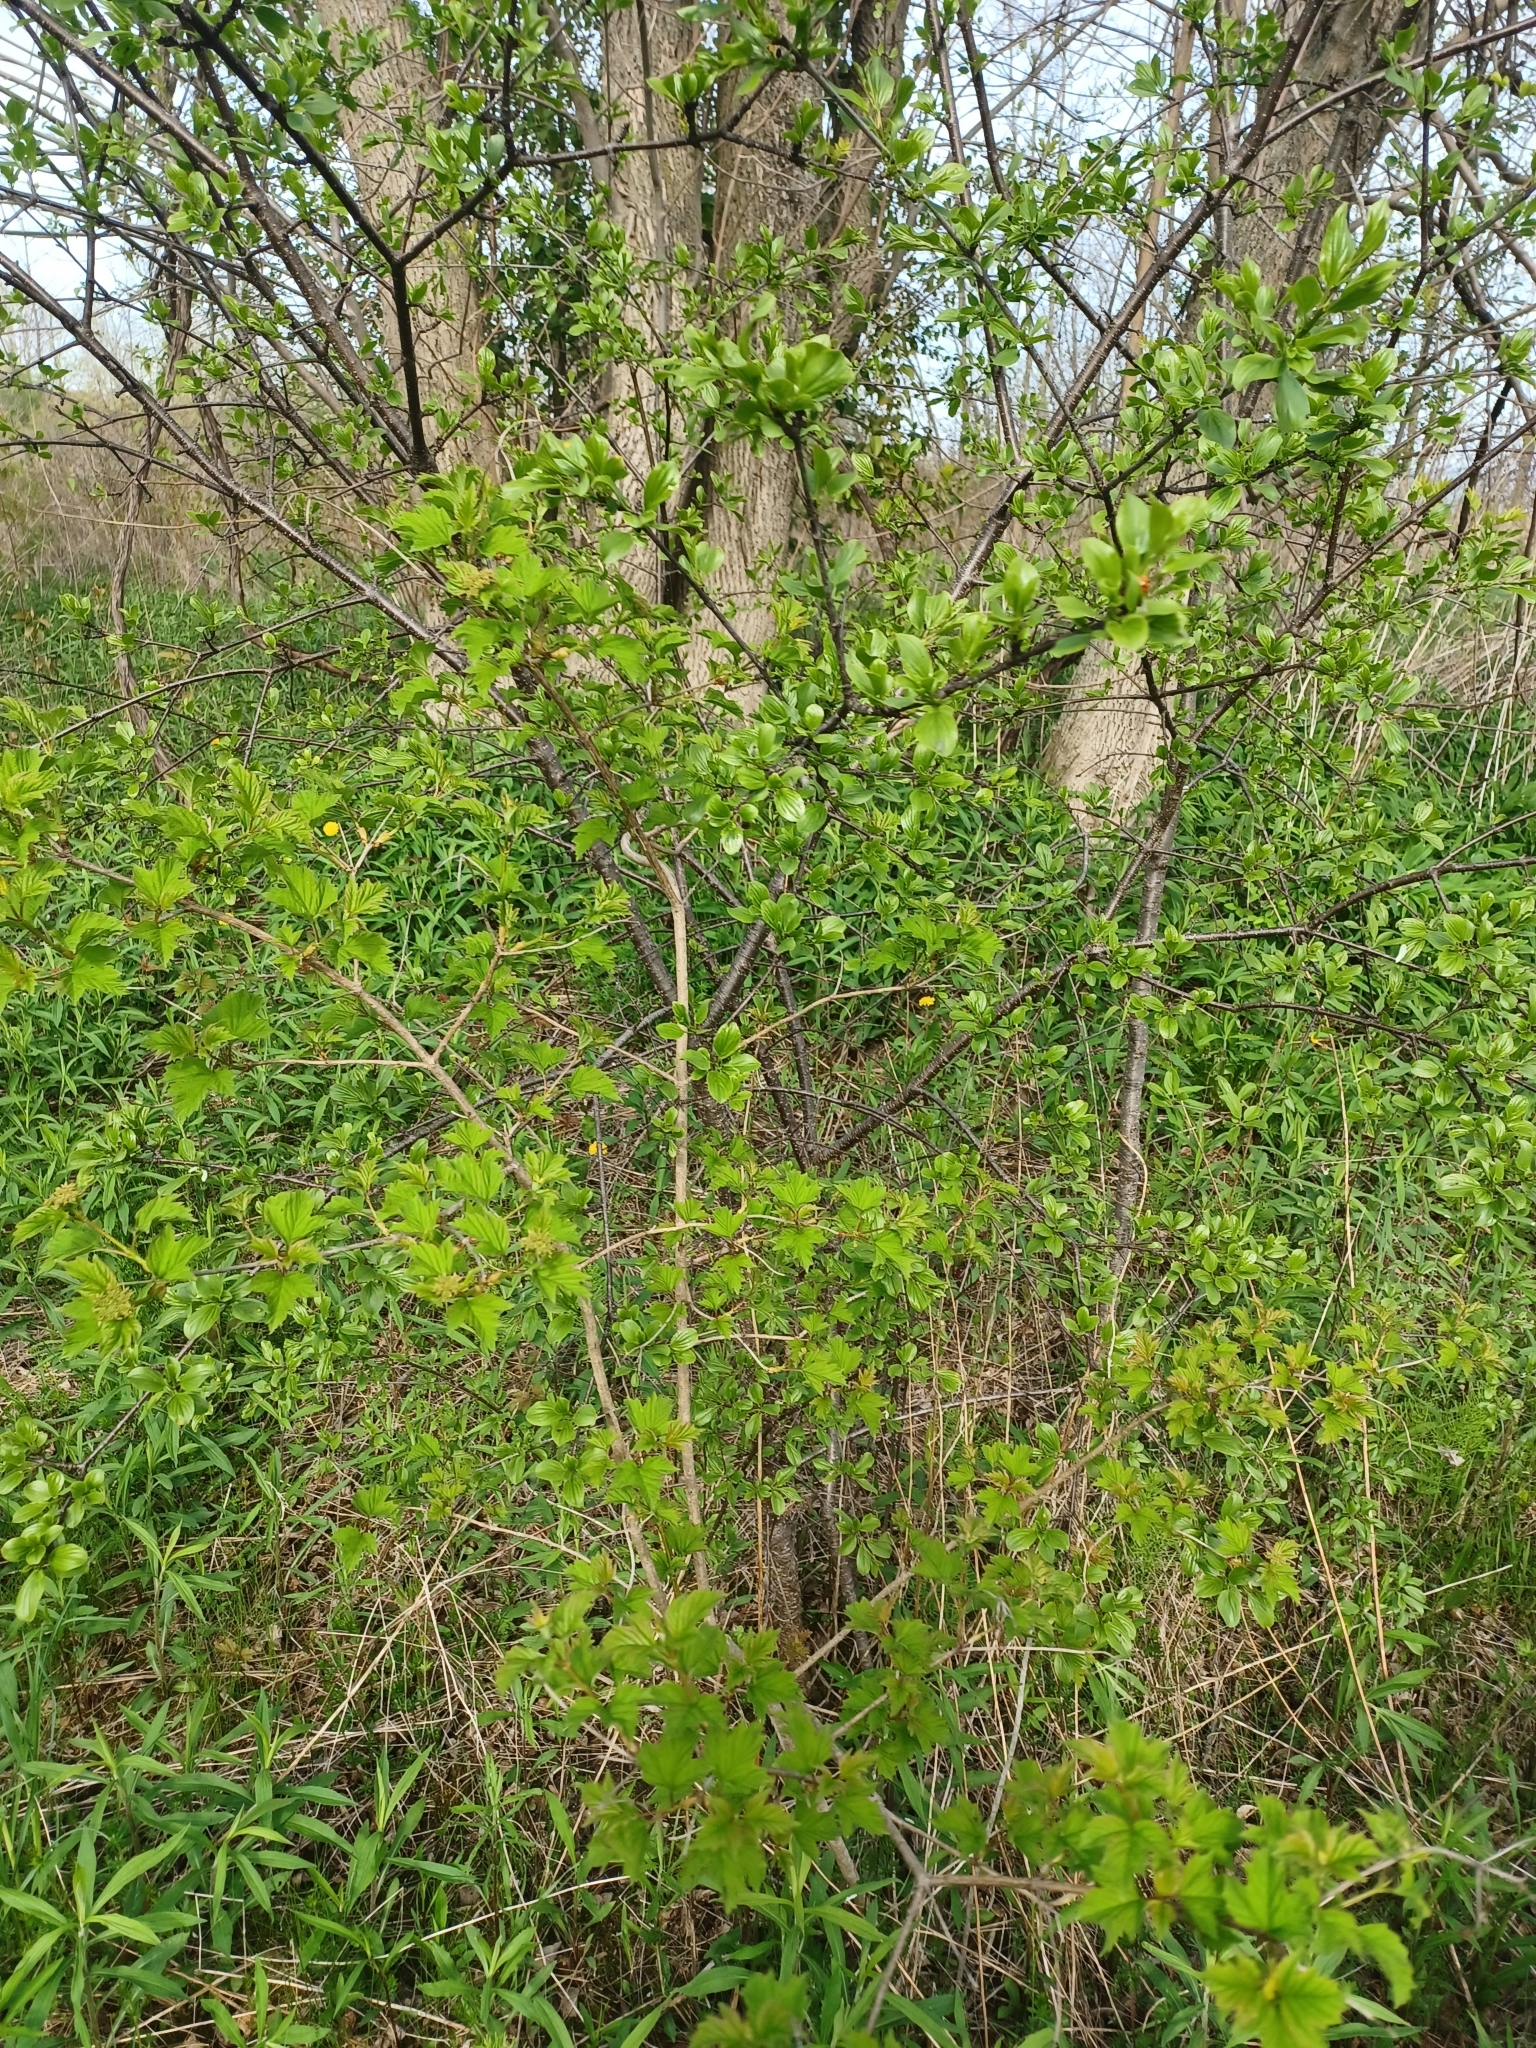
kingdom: Plantae
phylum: Tracheophyta
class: Magnoliopsida
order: Dipsacales
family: Viburnaceae
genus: Viburnum
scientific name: Viburnum opulus
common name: Guelder-rose
